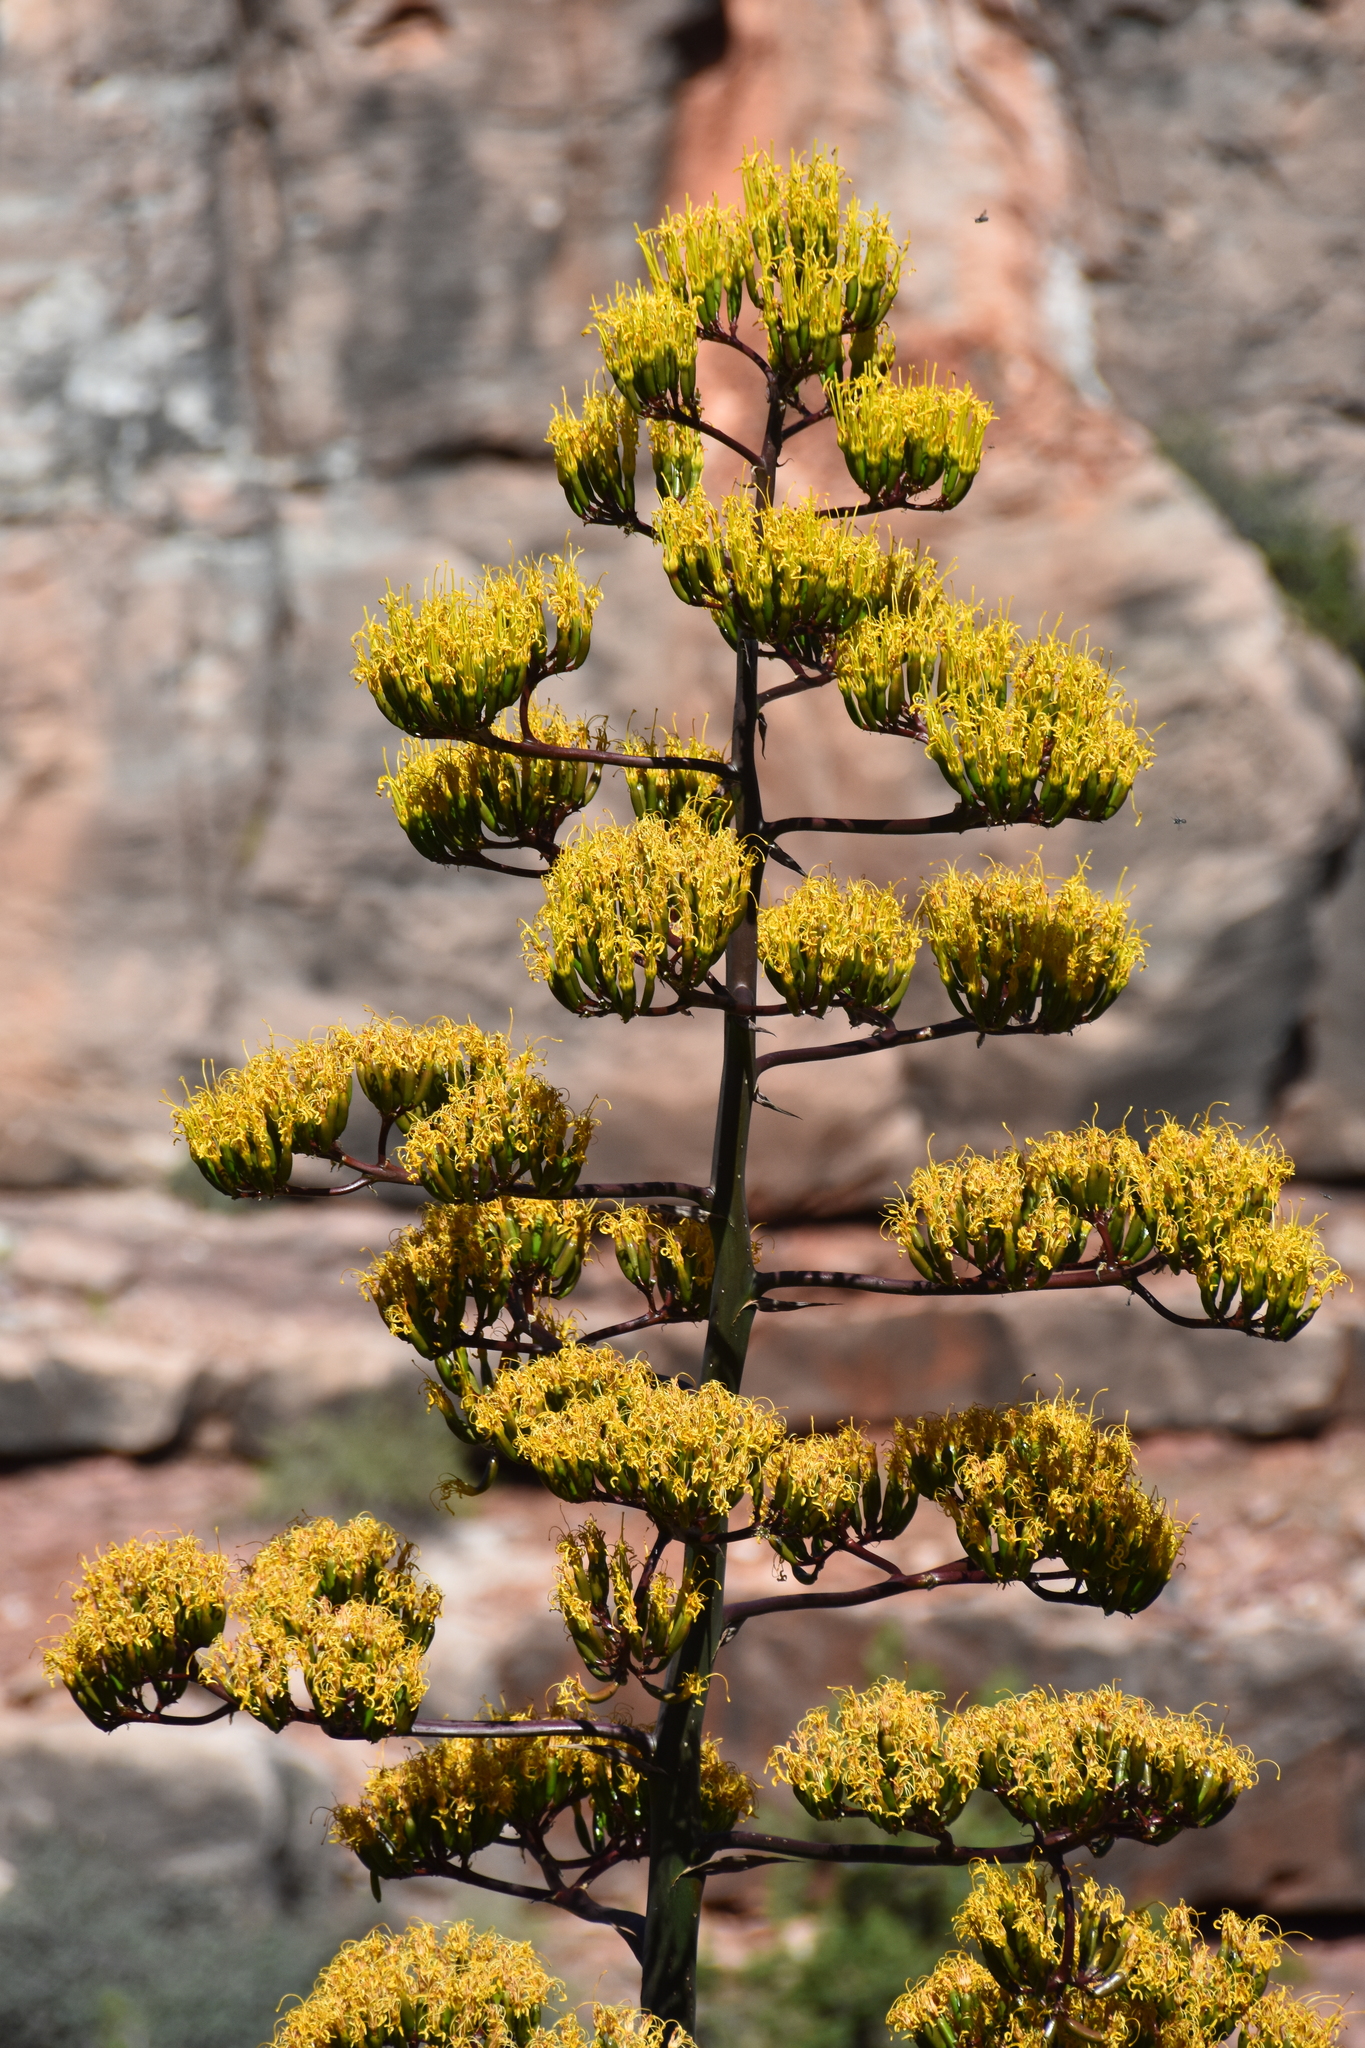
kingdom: Plantae
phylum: Tracheophyta
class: Liliopsida
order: Asparagales
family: Asparagaceae
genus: Agave
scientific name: Agave parryi
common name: Parry's agave
